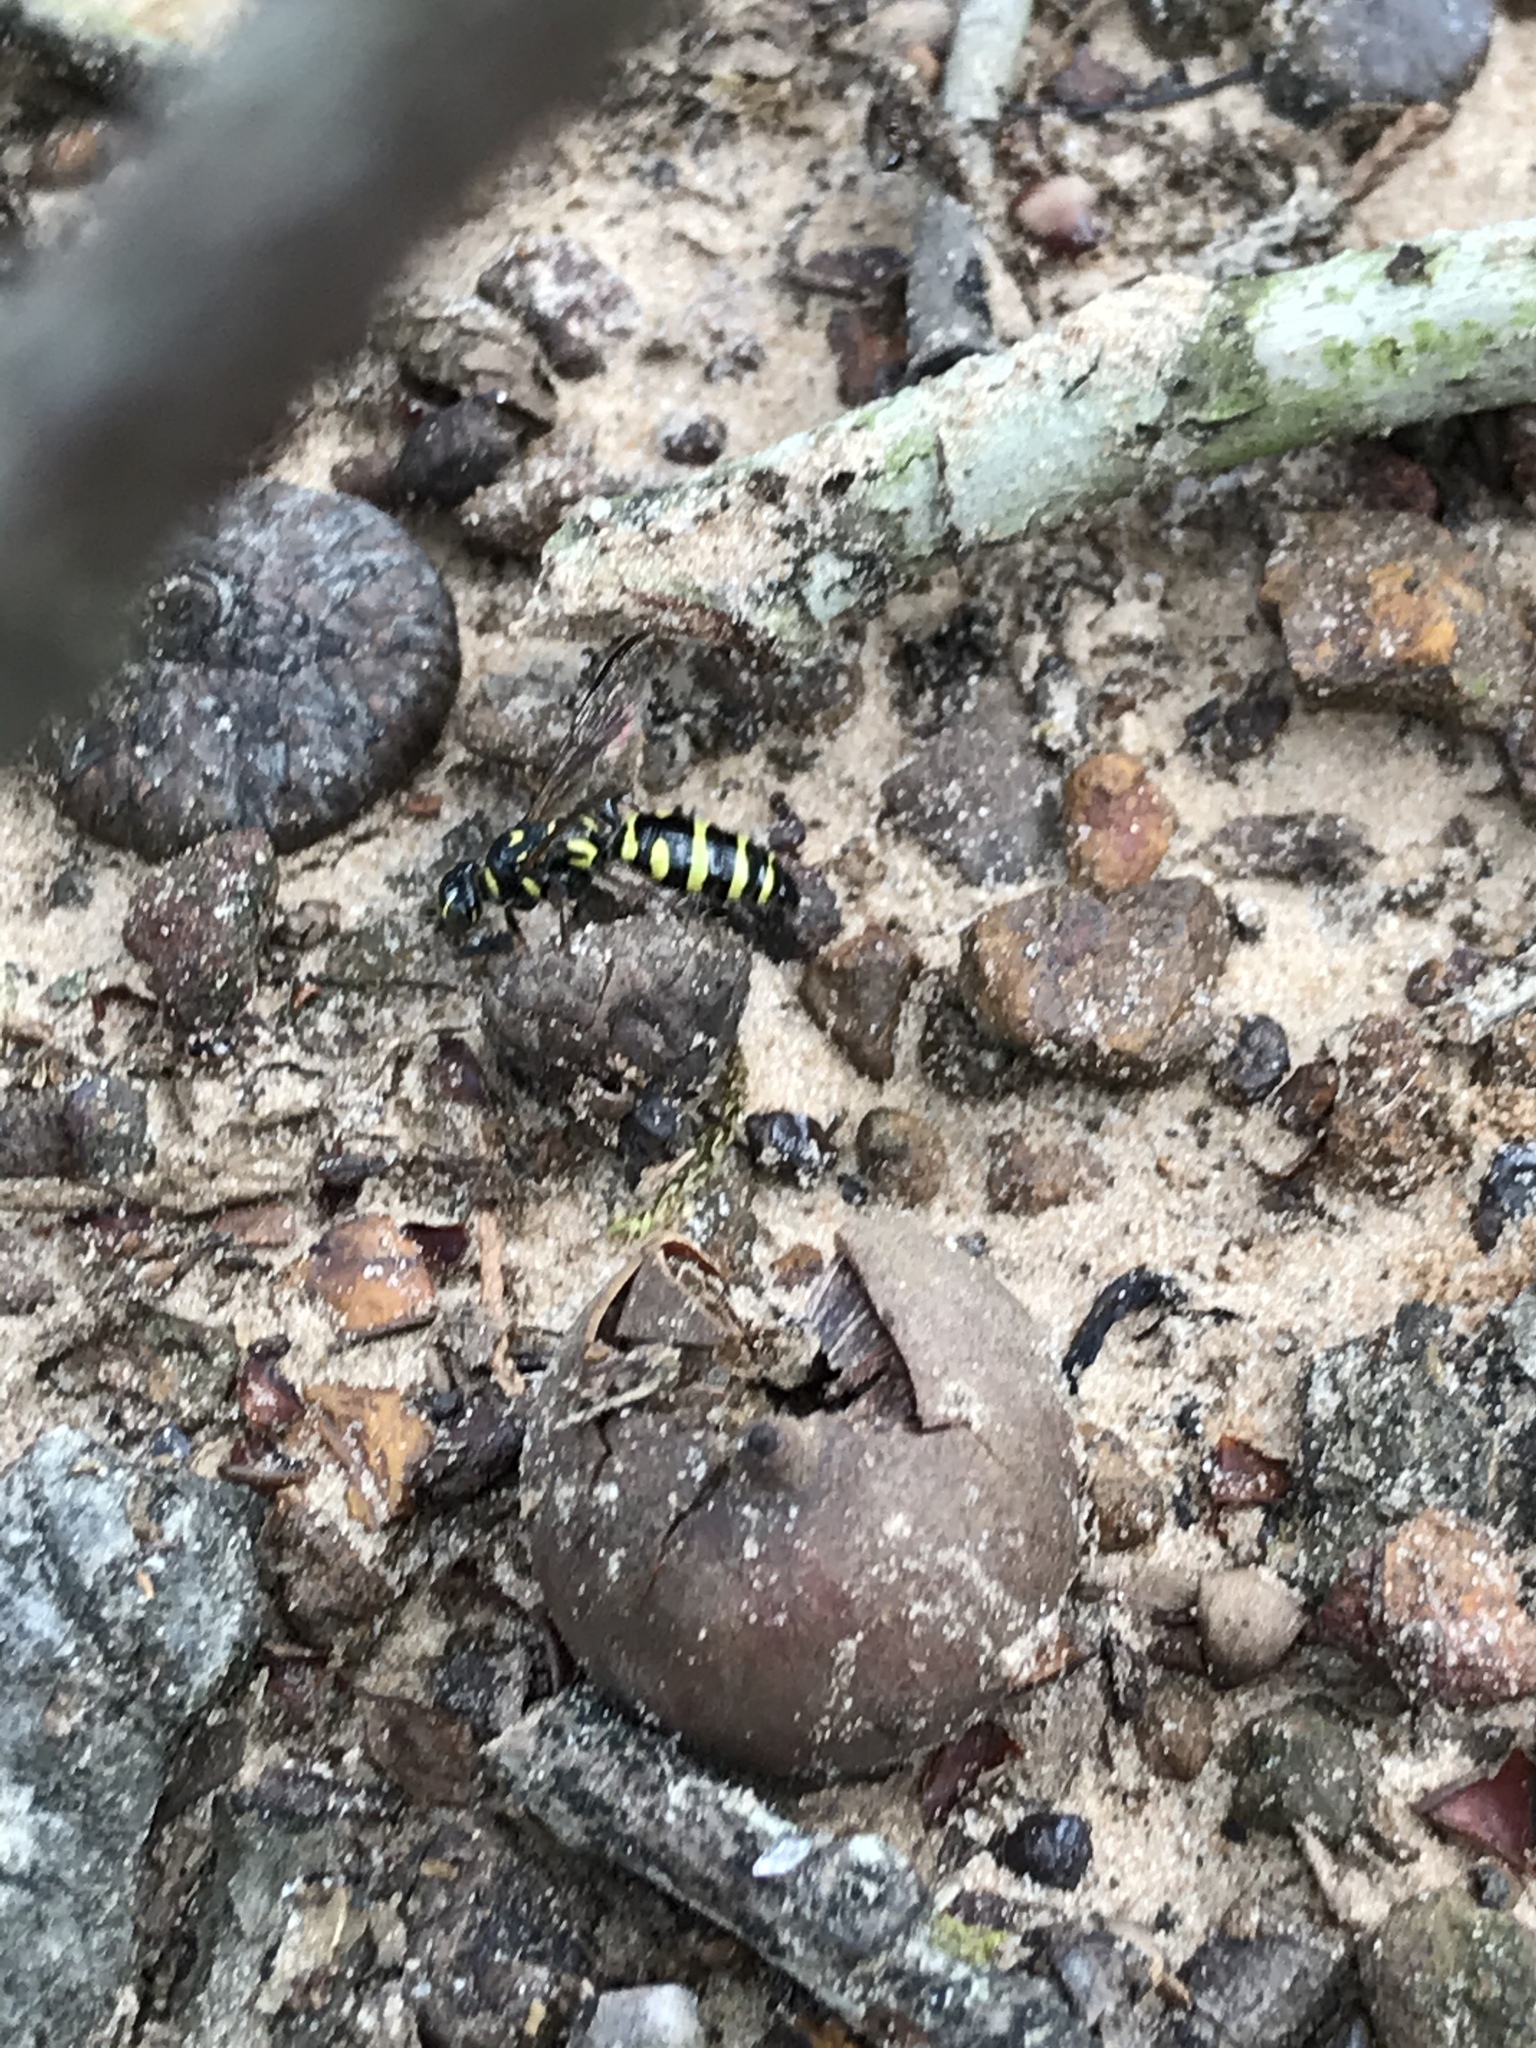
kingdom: Animalia
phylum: Arthropoda
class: Insecta
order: Hymenoptera
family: Tiphiidae
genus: Myzinum
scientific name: Myzinum maculatum
